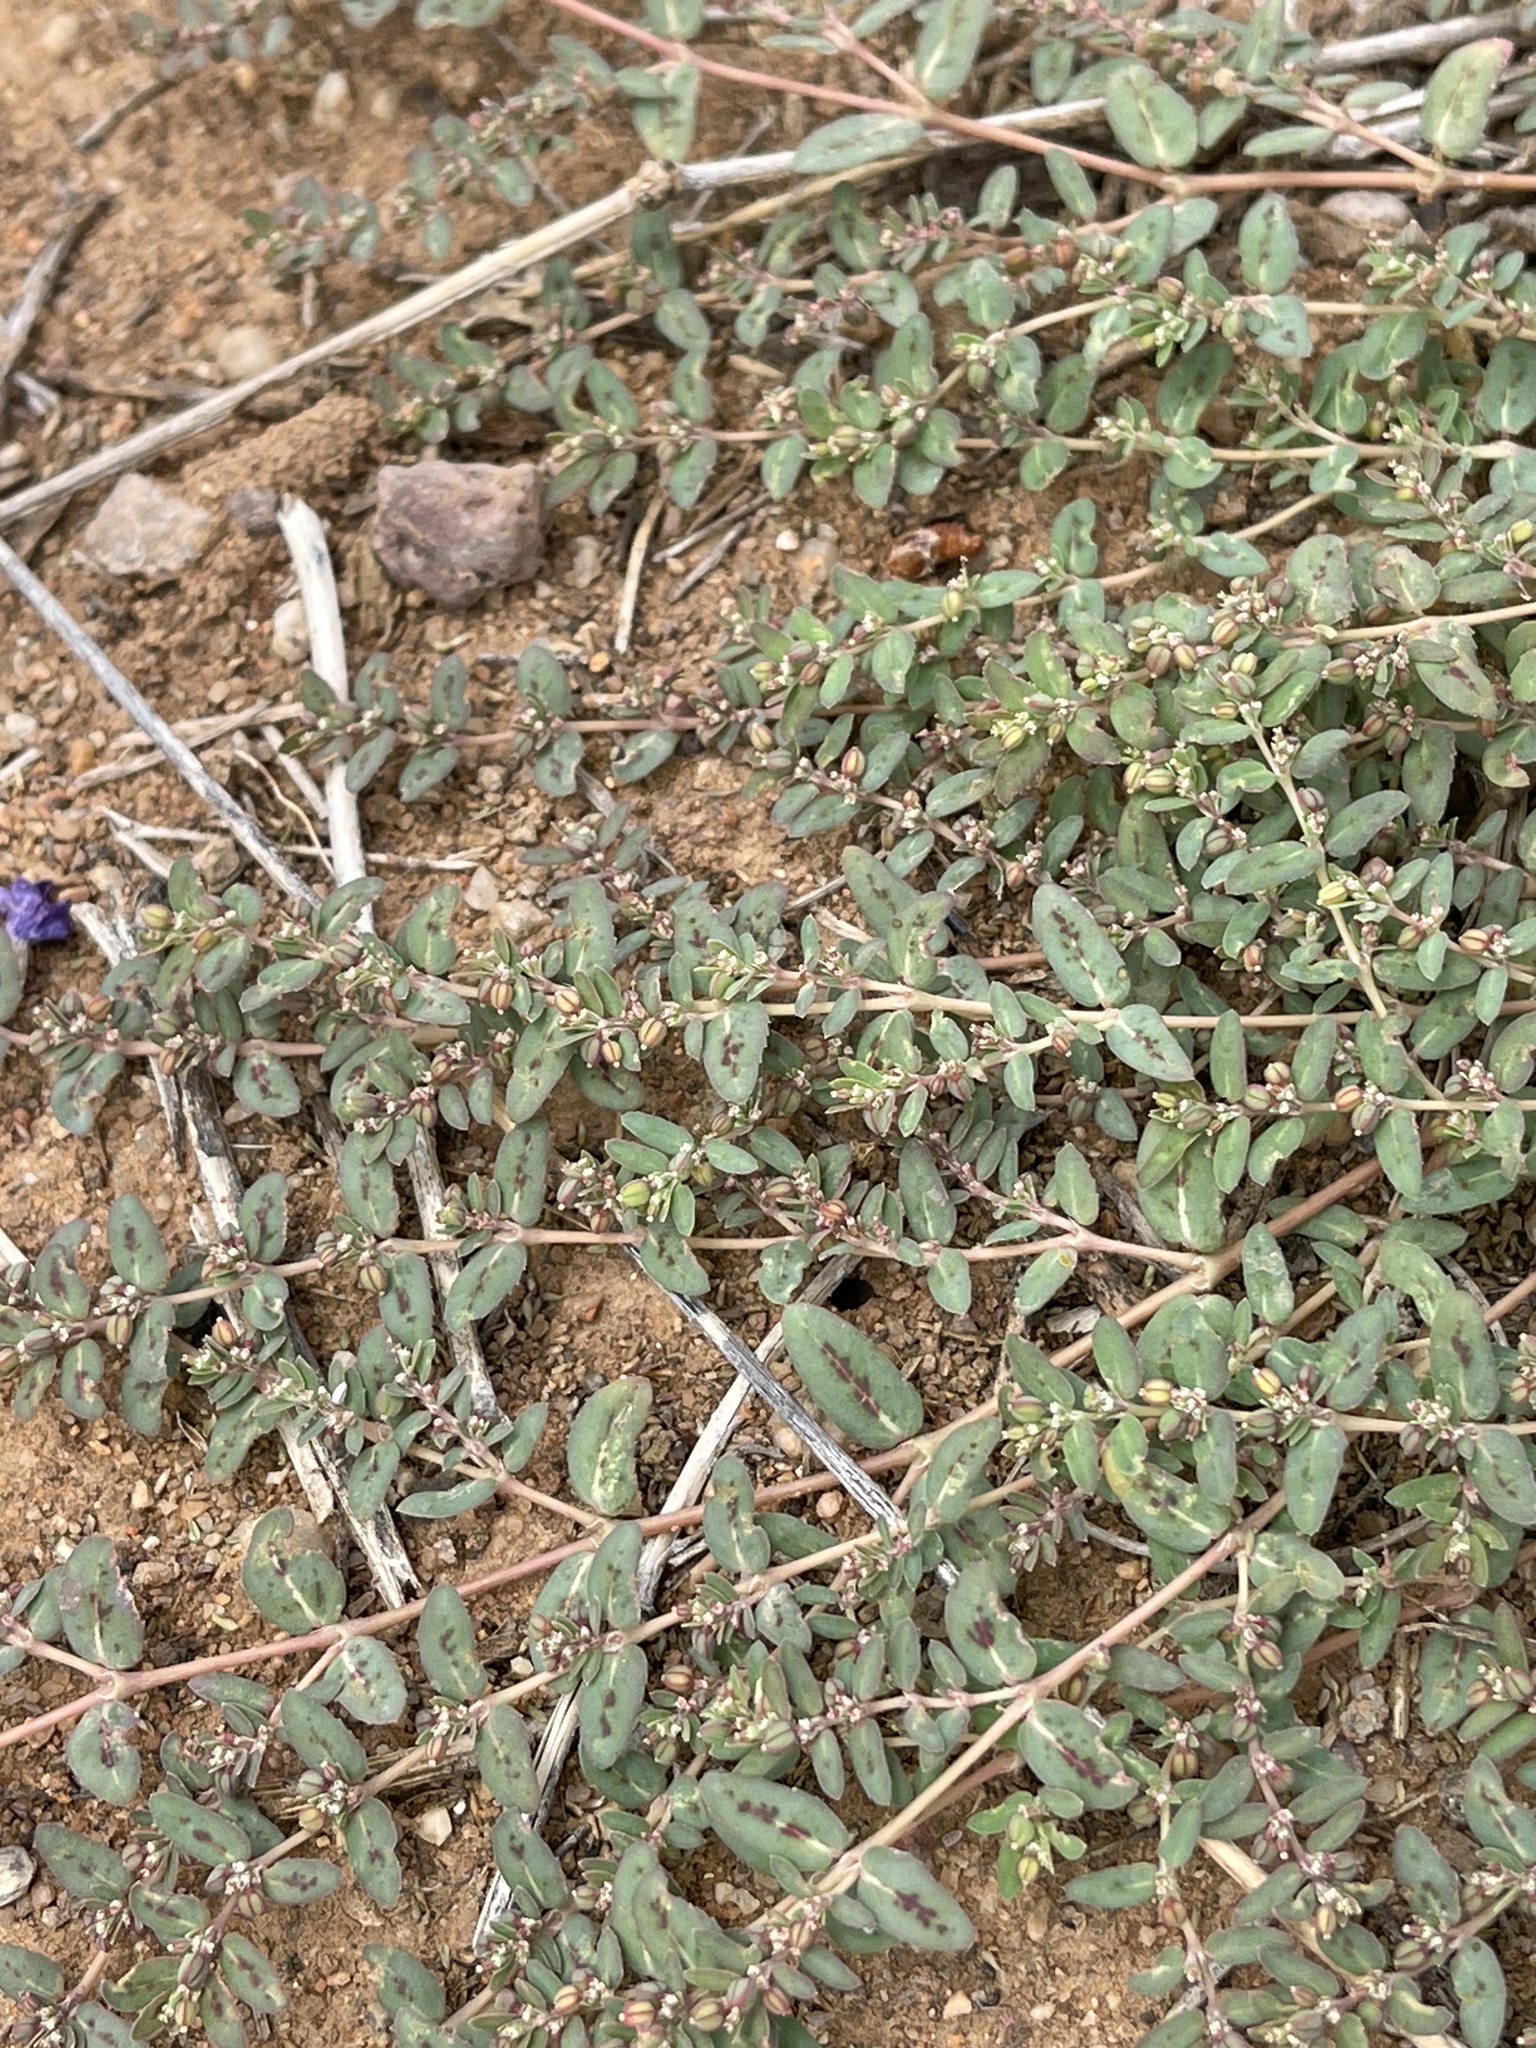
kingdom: Plantae
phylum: Tracheophyta
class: Magnoliopsida
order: Malpighiales
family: Euphorbiaceae
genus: Euphorbia
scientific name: Euphorbia abramsiana
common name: Abram's spurge
